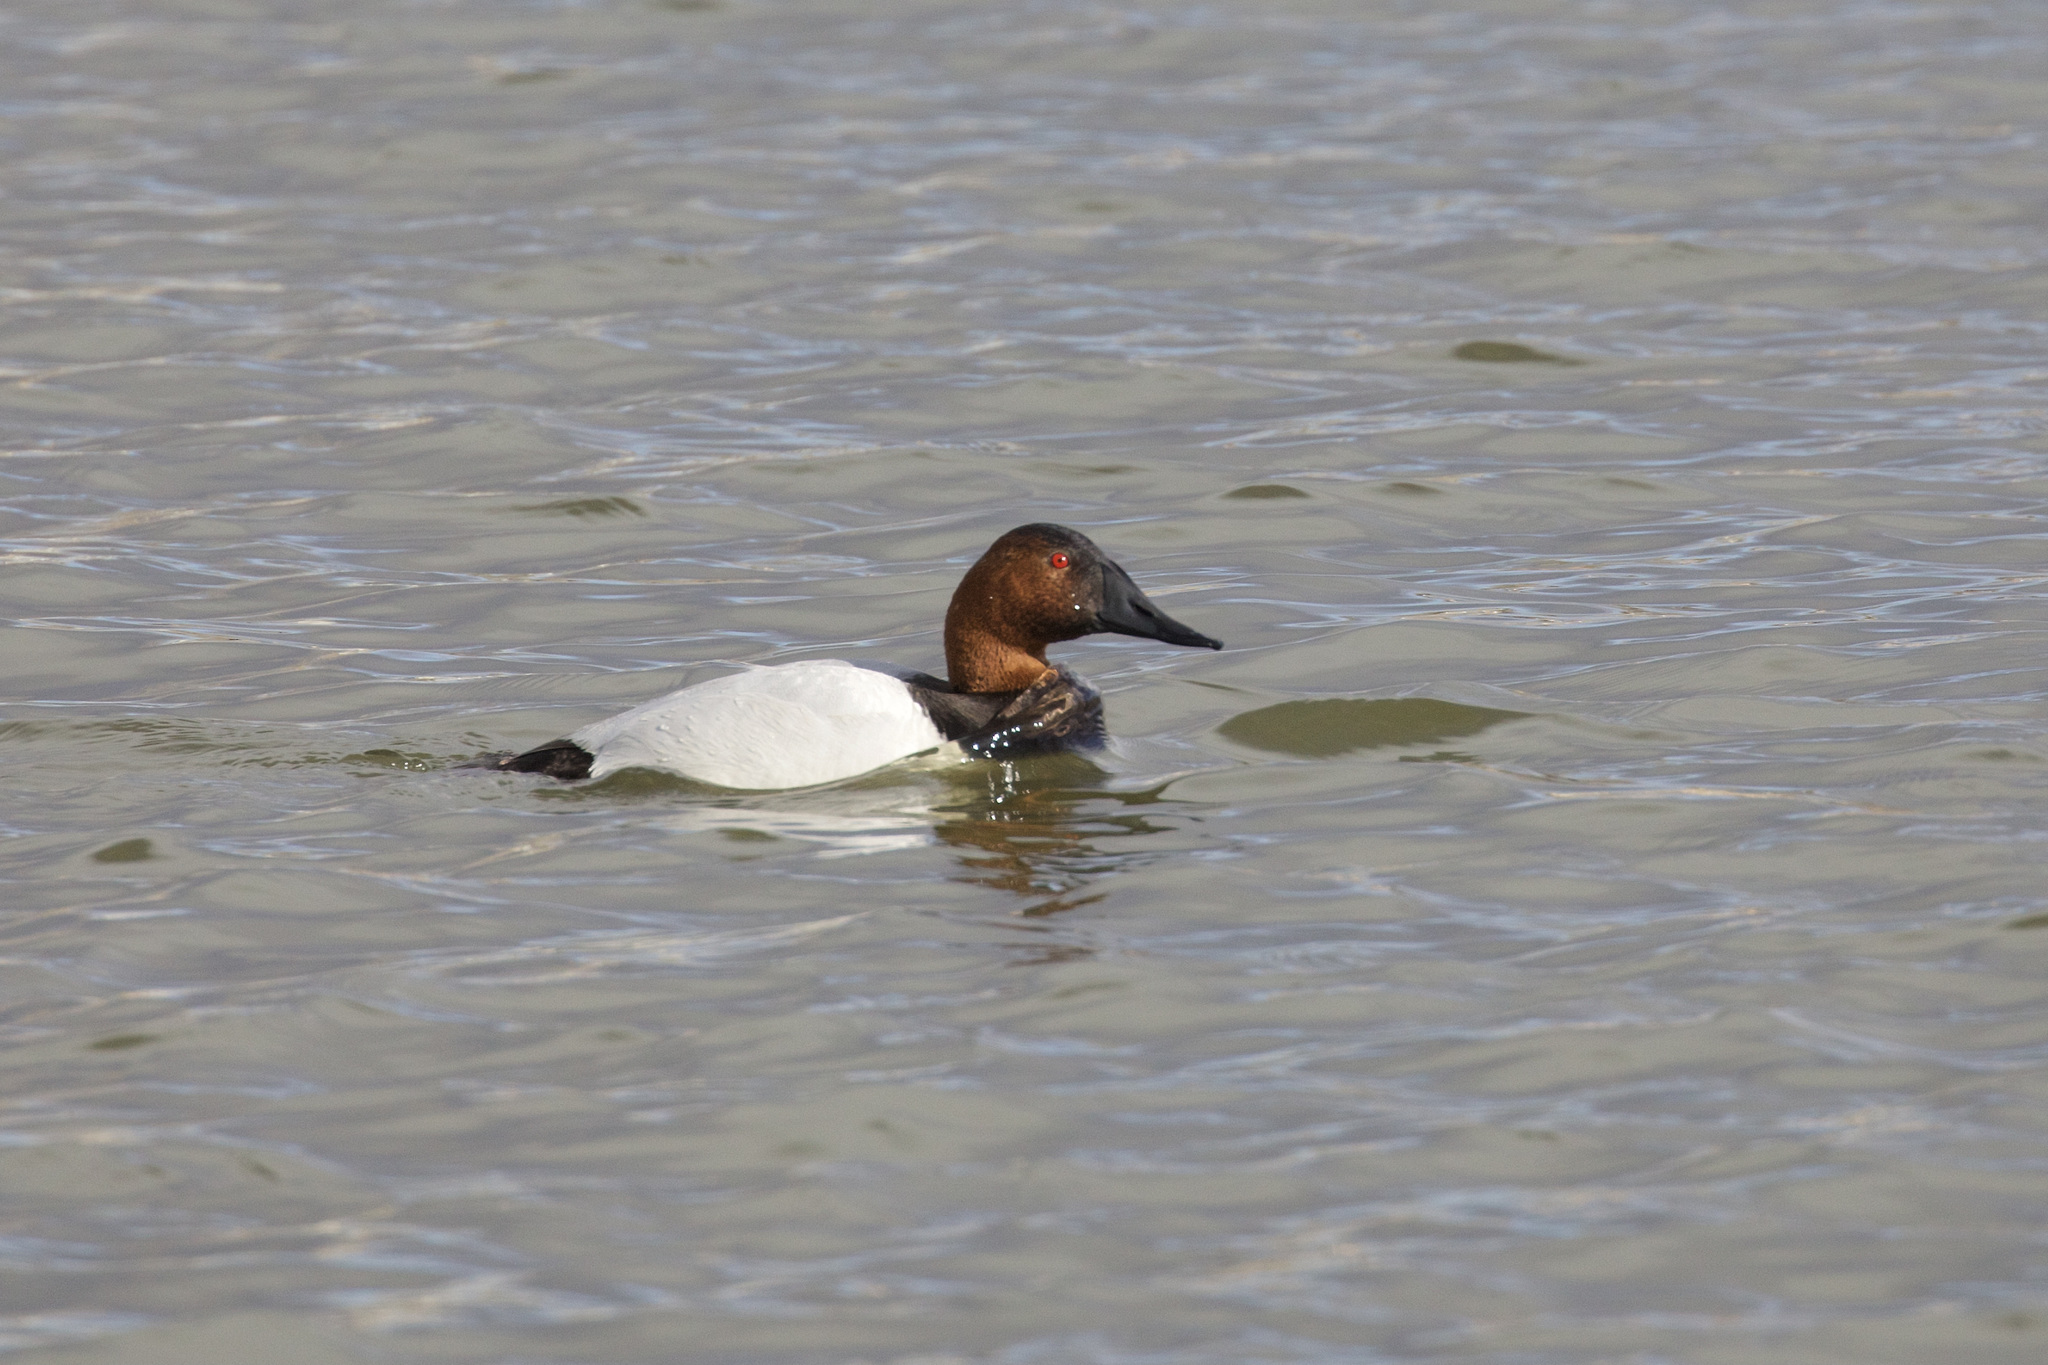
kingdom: Animalia
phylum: Chordata
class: Aves
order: Anseriformes
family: Anatidae
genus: Aythya
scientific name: Aythya valisineria
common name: Canvasback
